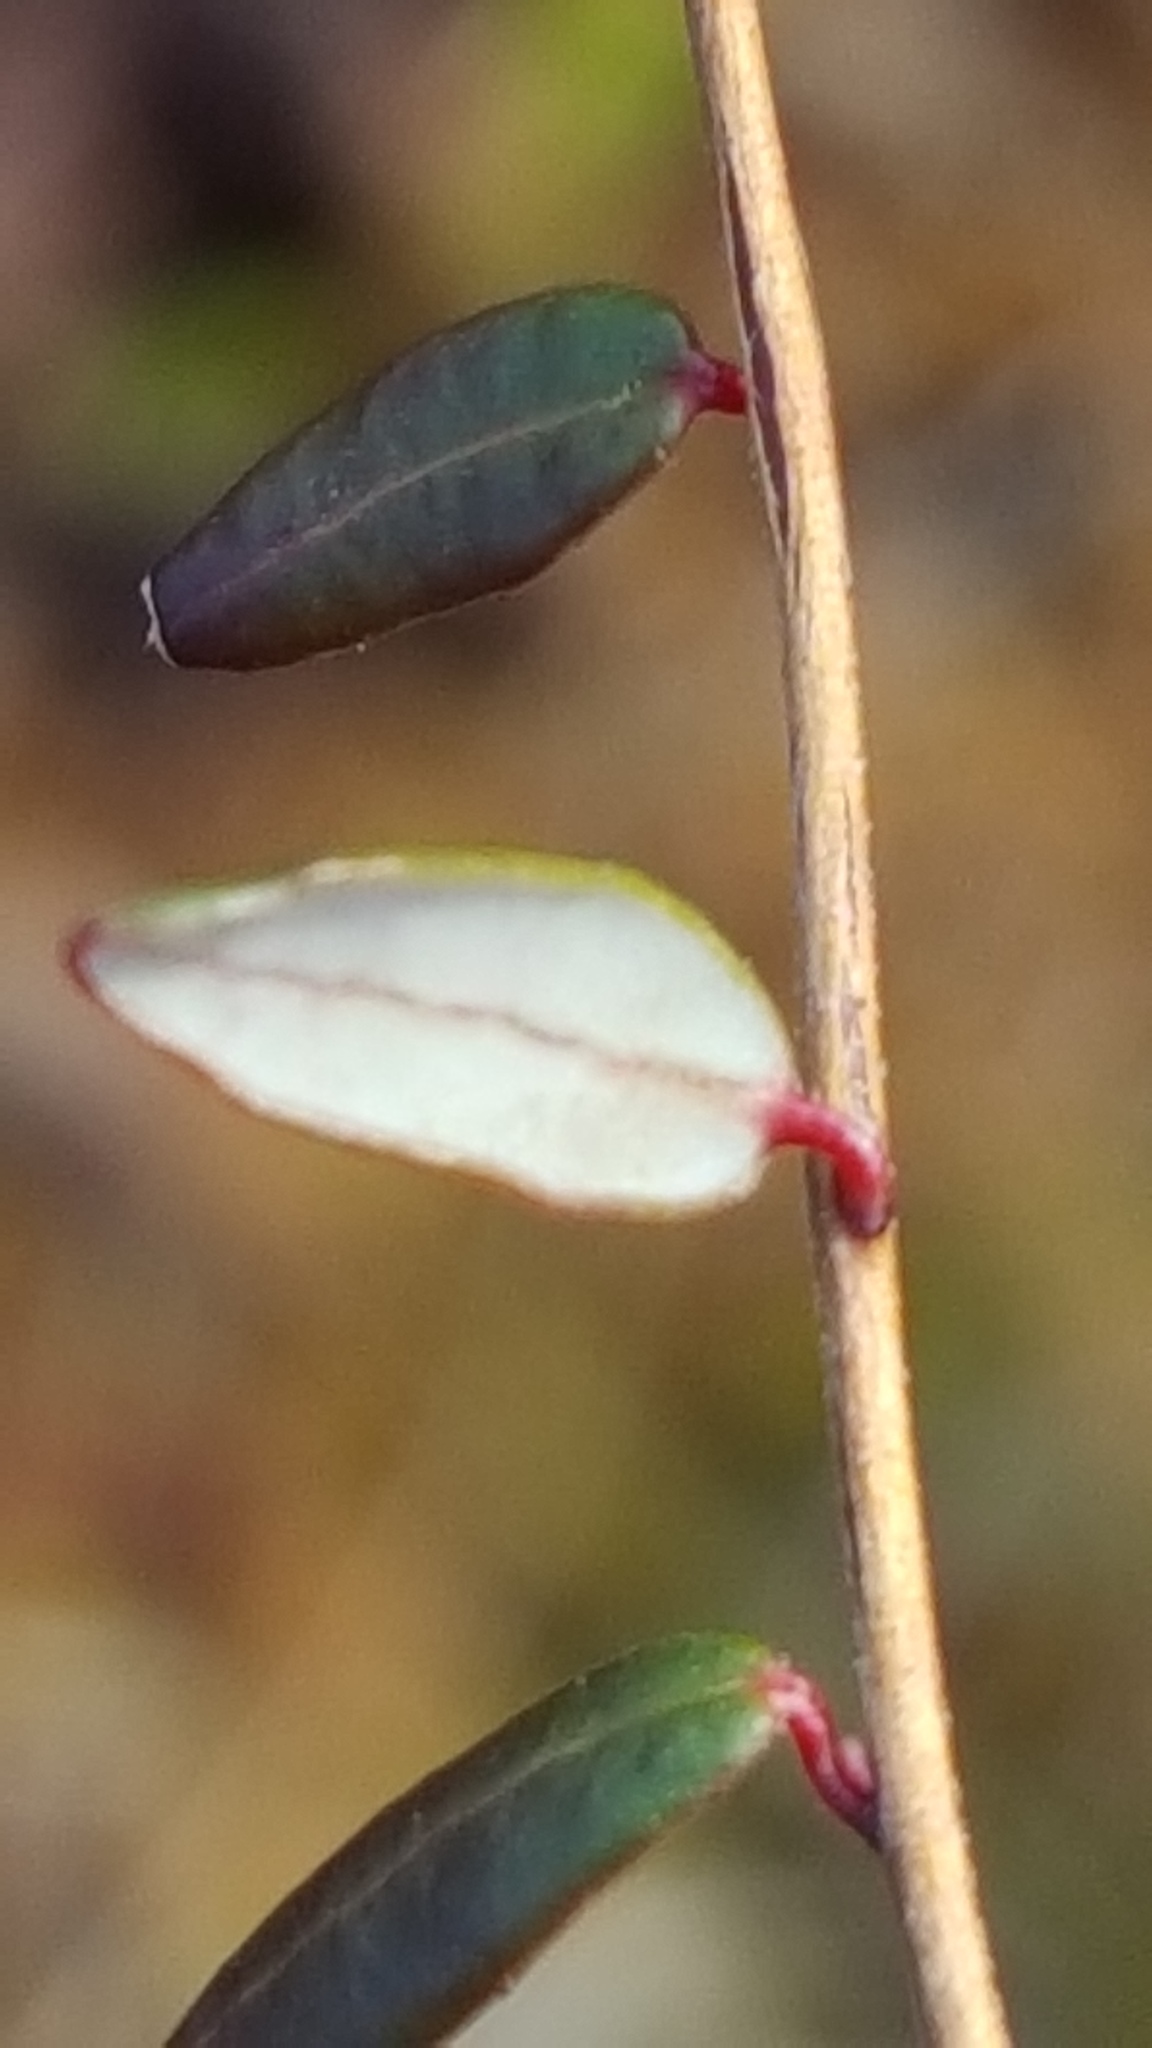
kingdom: Plantae
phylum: Tracheophyta
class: Magnoliopsida
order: Ericales
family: Ericaceae
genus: Vaccinium
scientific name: Vaccinium oxycoccos
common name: Cranberry
